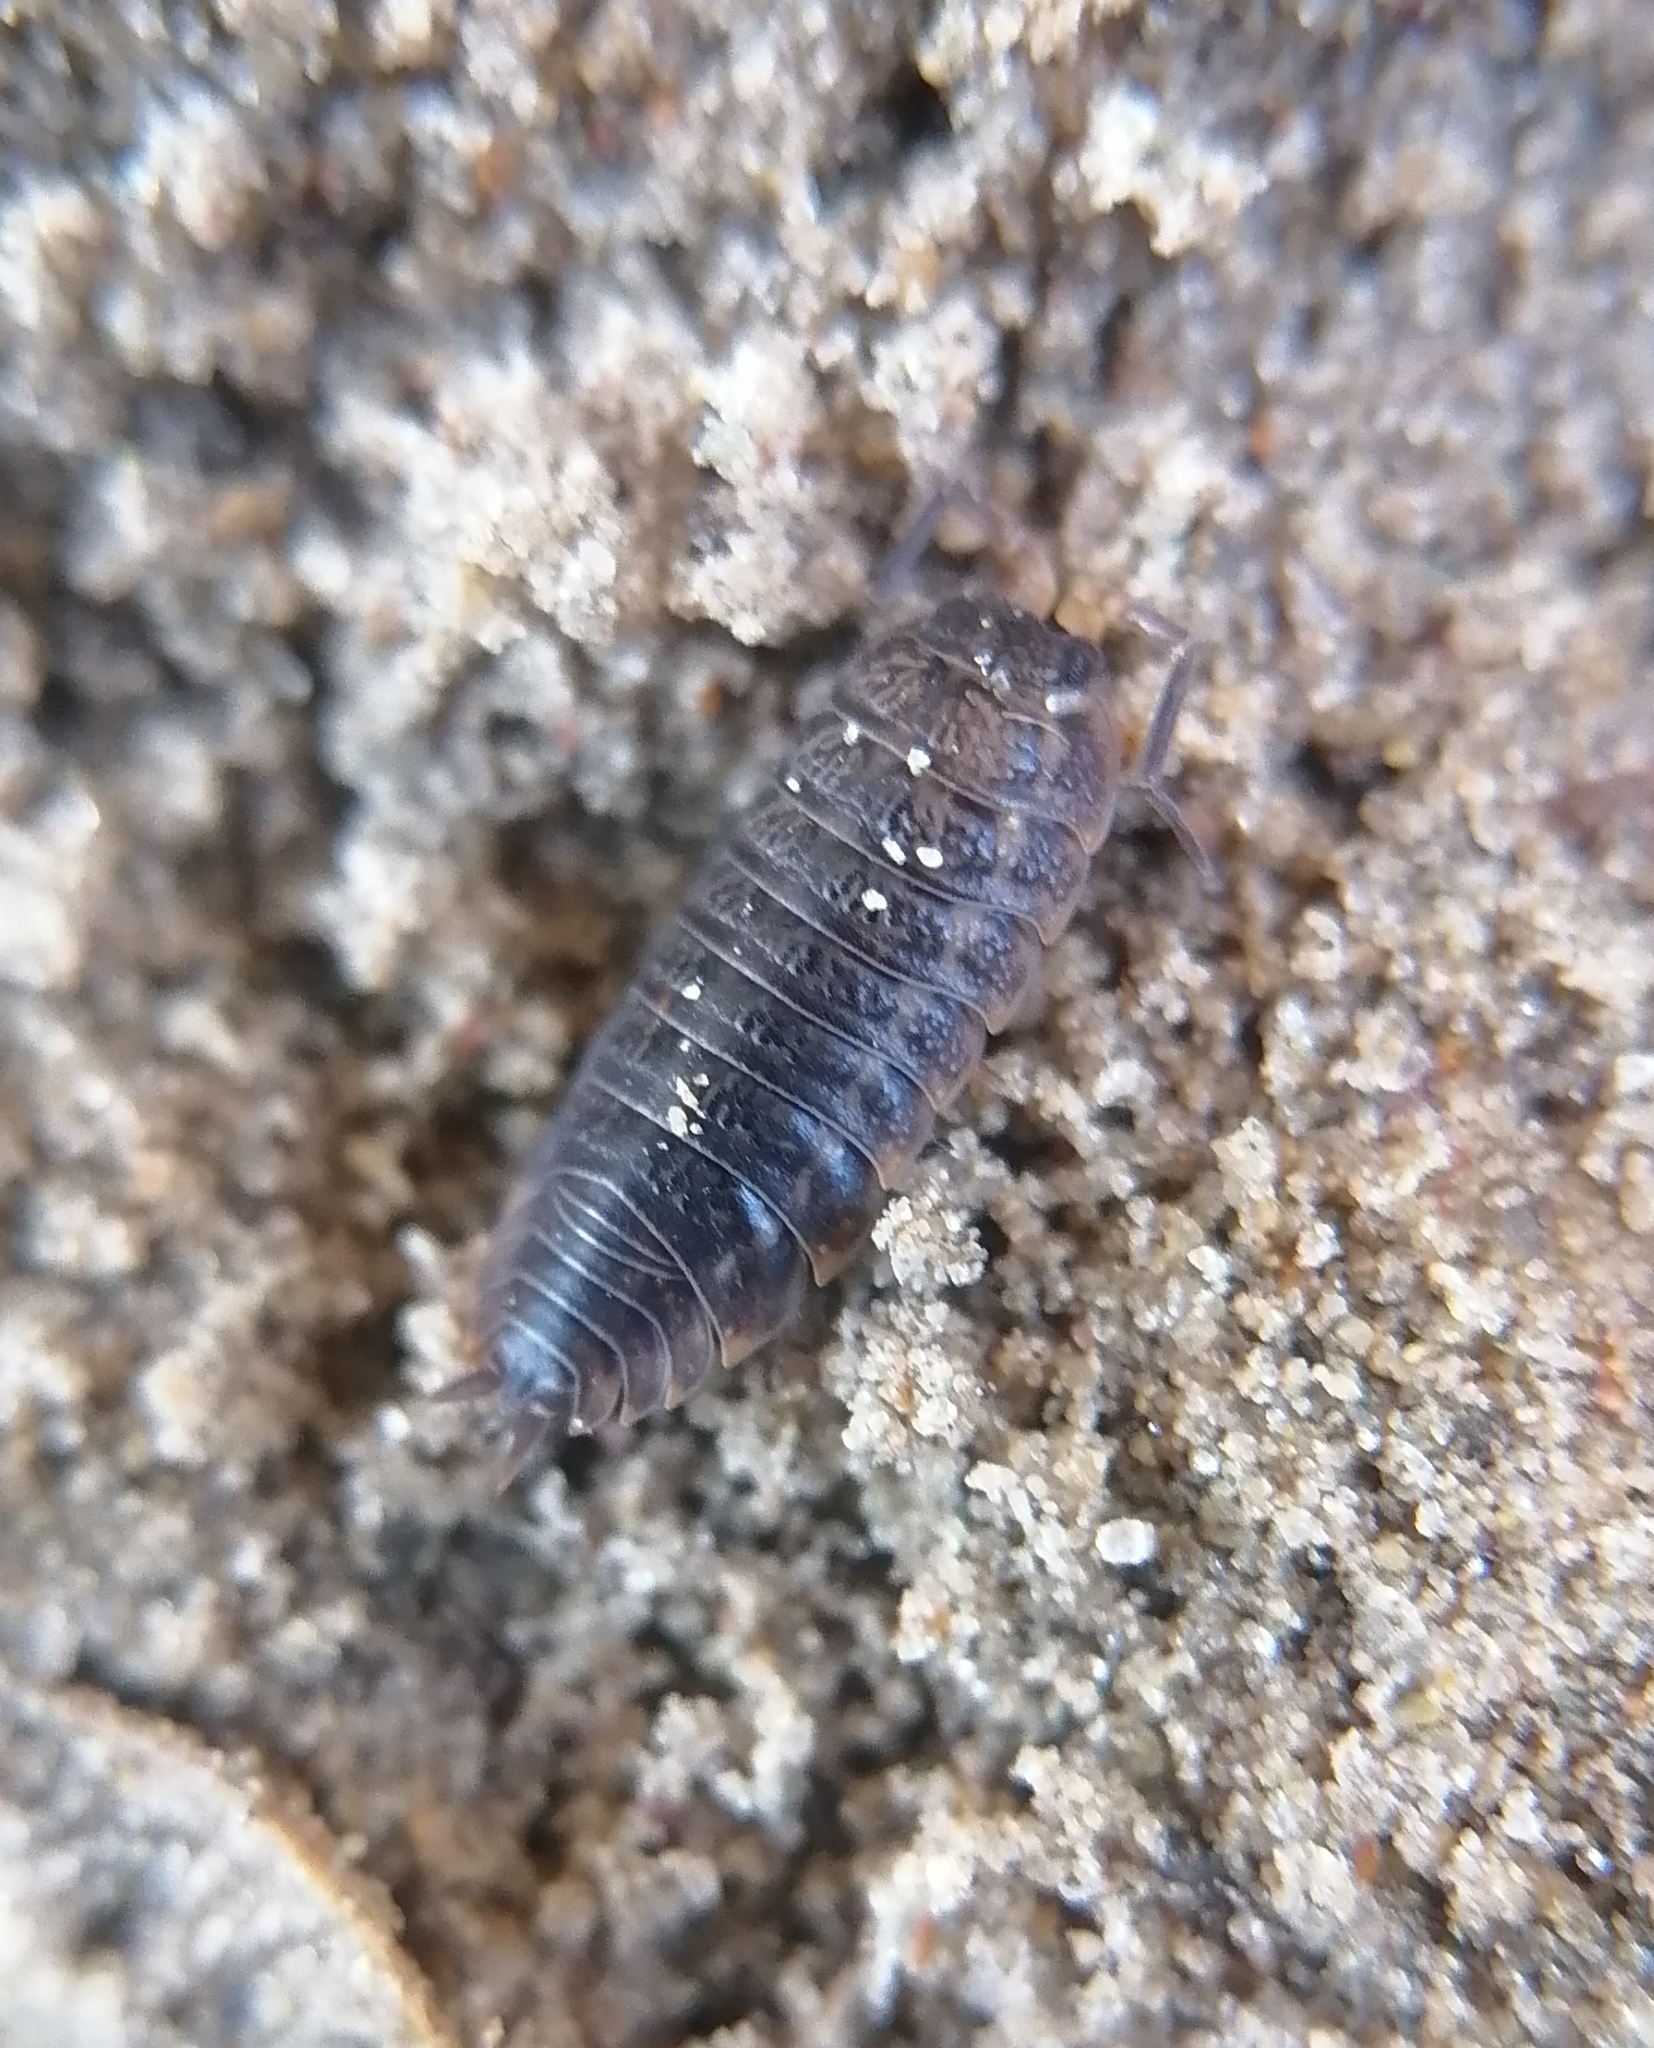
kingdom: Animalia
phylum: Arthropoda
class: Malacostraca
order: Isopoda
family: Trachelipodidae
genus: Trachelipus
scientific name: Trachelipus rathkii
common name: Isopod
